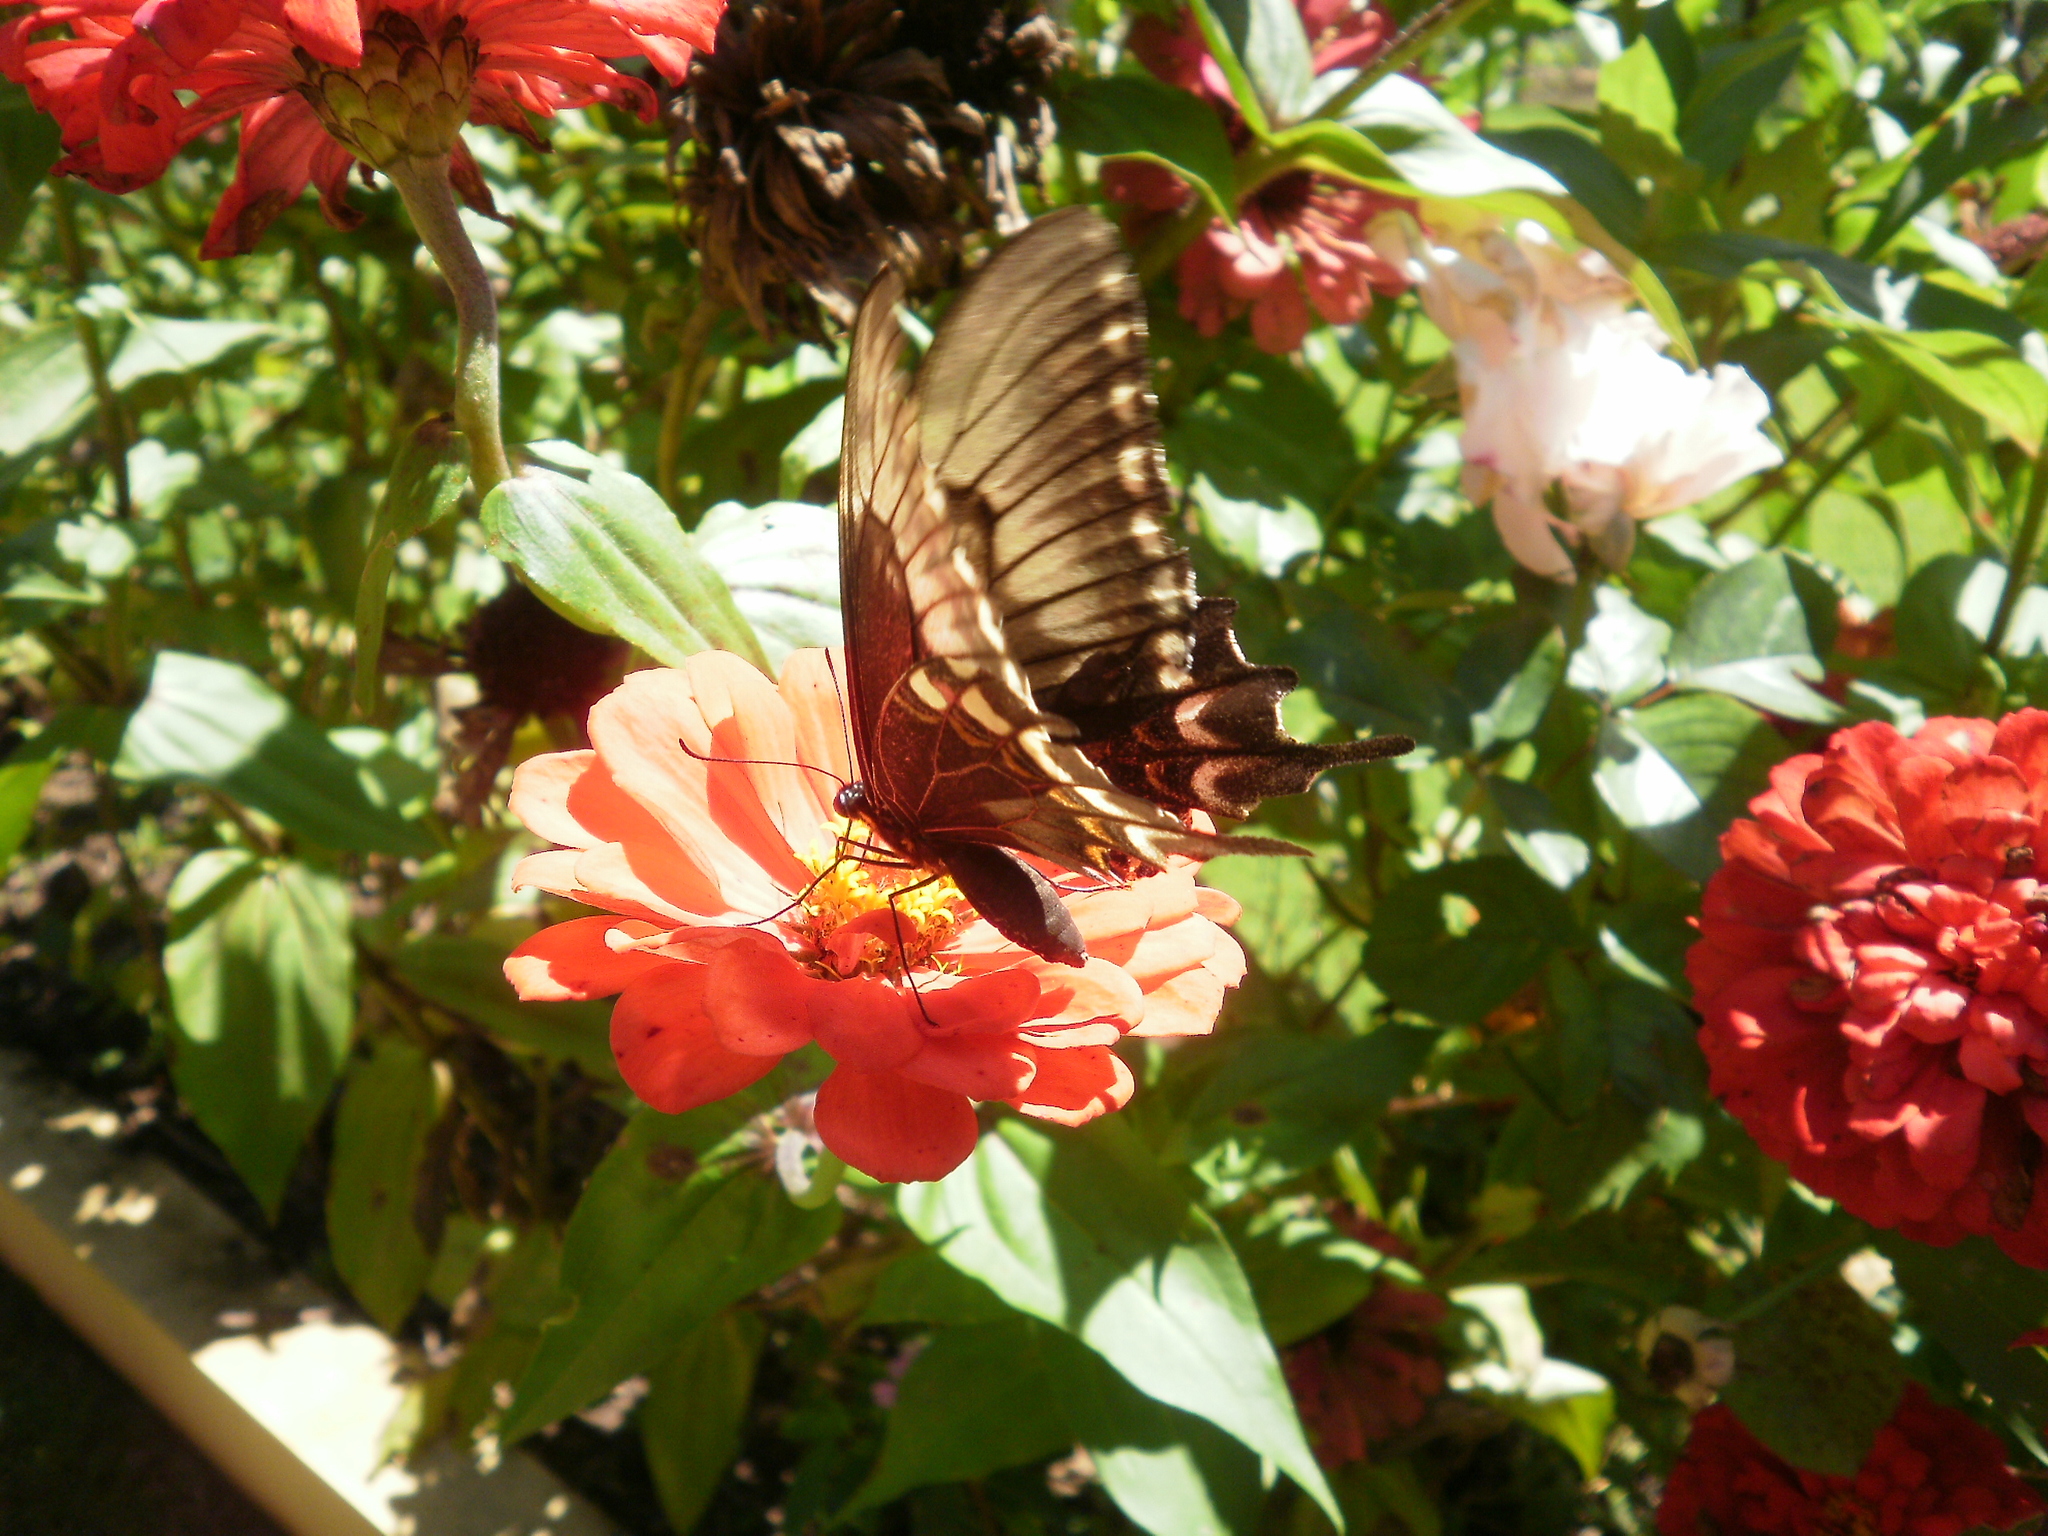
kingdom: Animalia
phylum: Arthropoda
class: Insecta
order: Lepidoptera
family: Papilionidae
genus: Papilio
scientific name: Papilio astyalus
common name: Astyalus swallowtail
